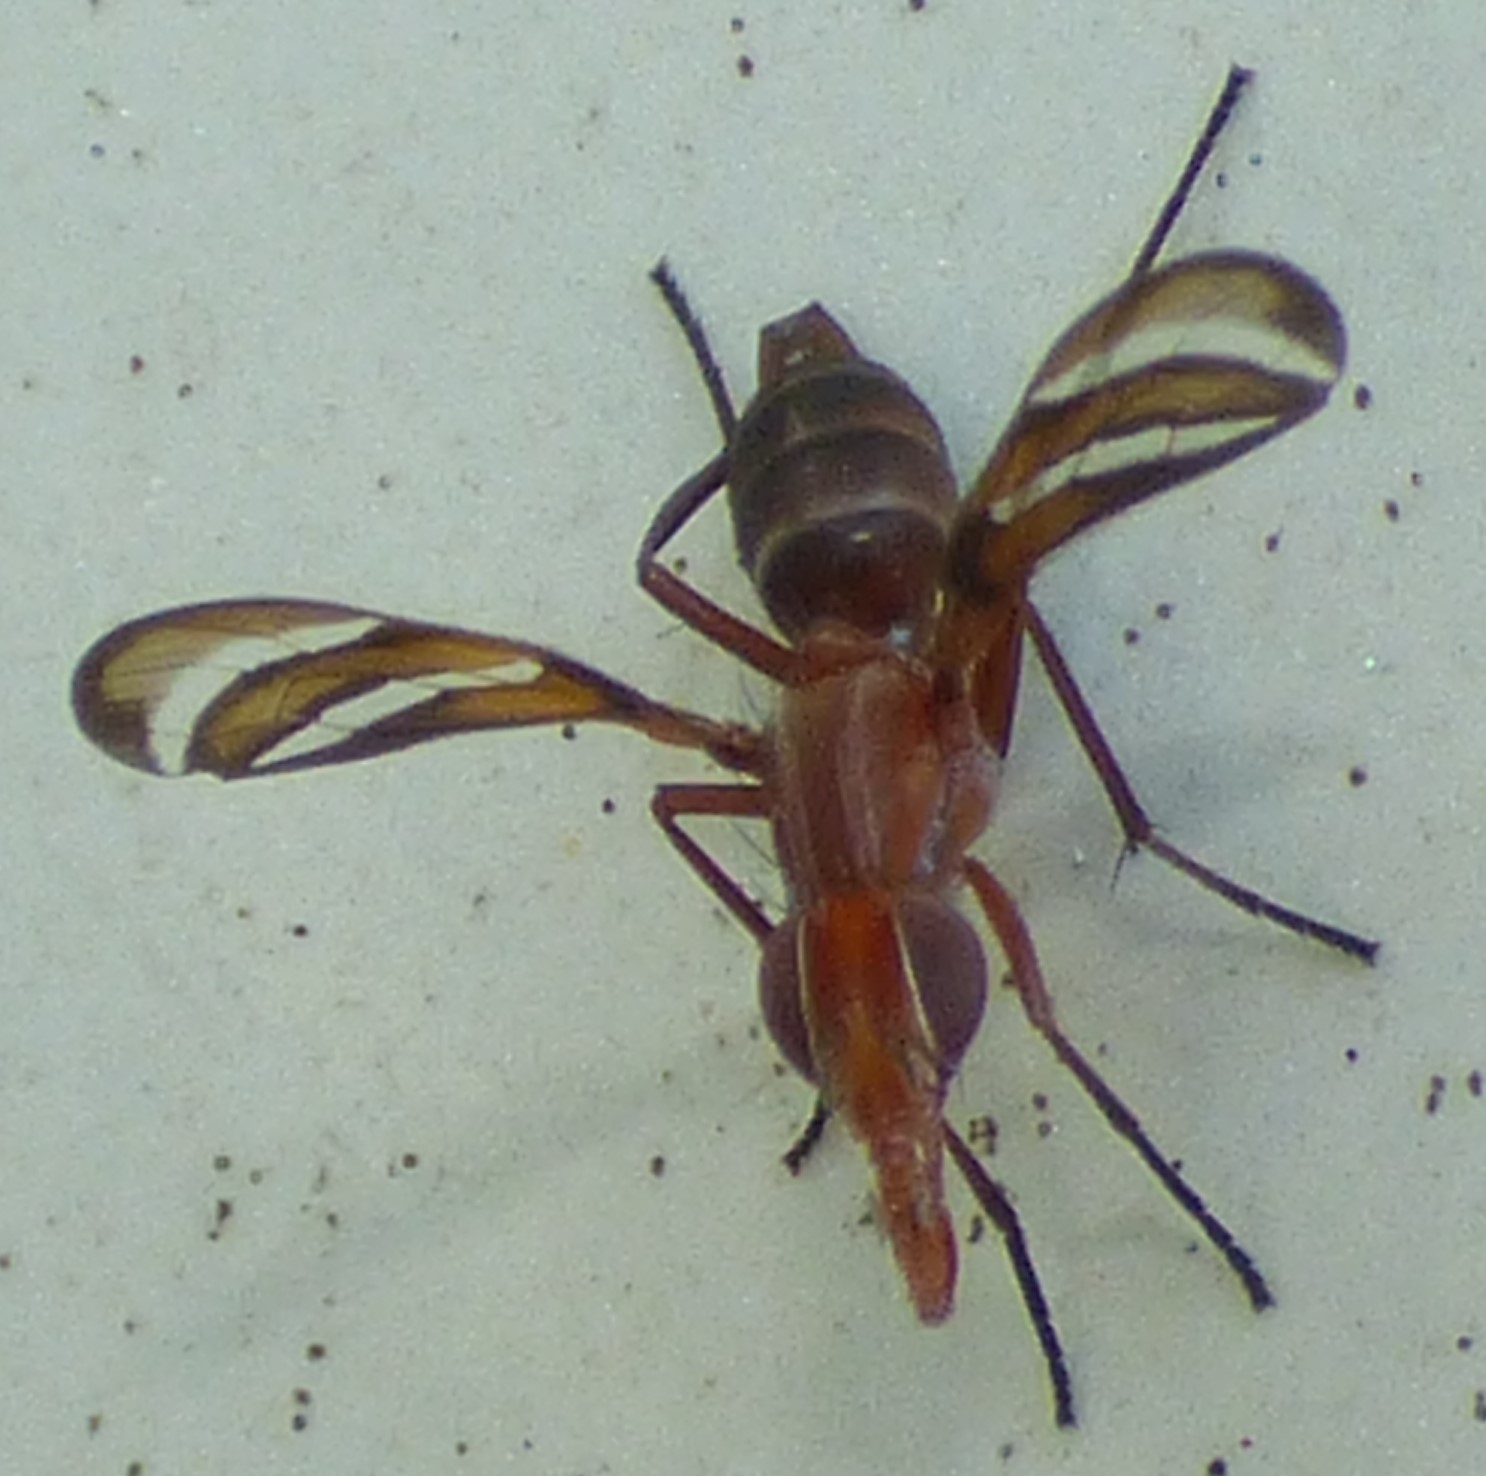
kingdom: Animalia
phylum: Arthropoda
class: Insecta
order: Diptera
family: Ulidiidae
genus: Tritoxa
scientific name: Tritoxa incurva
